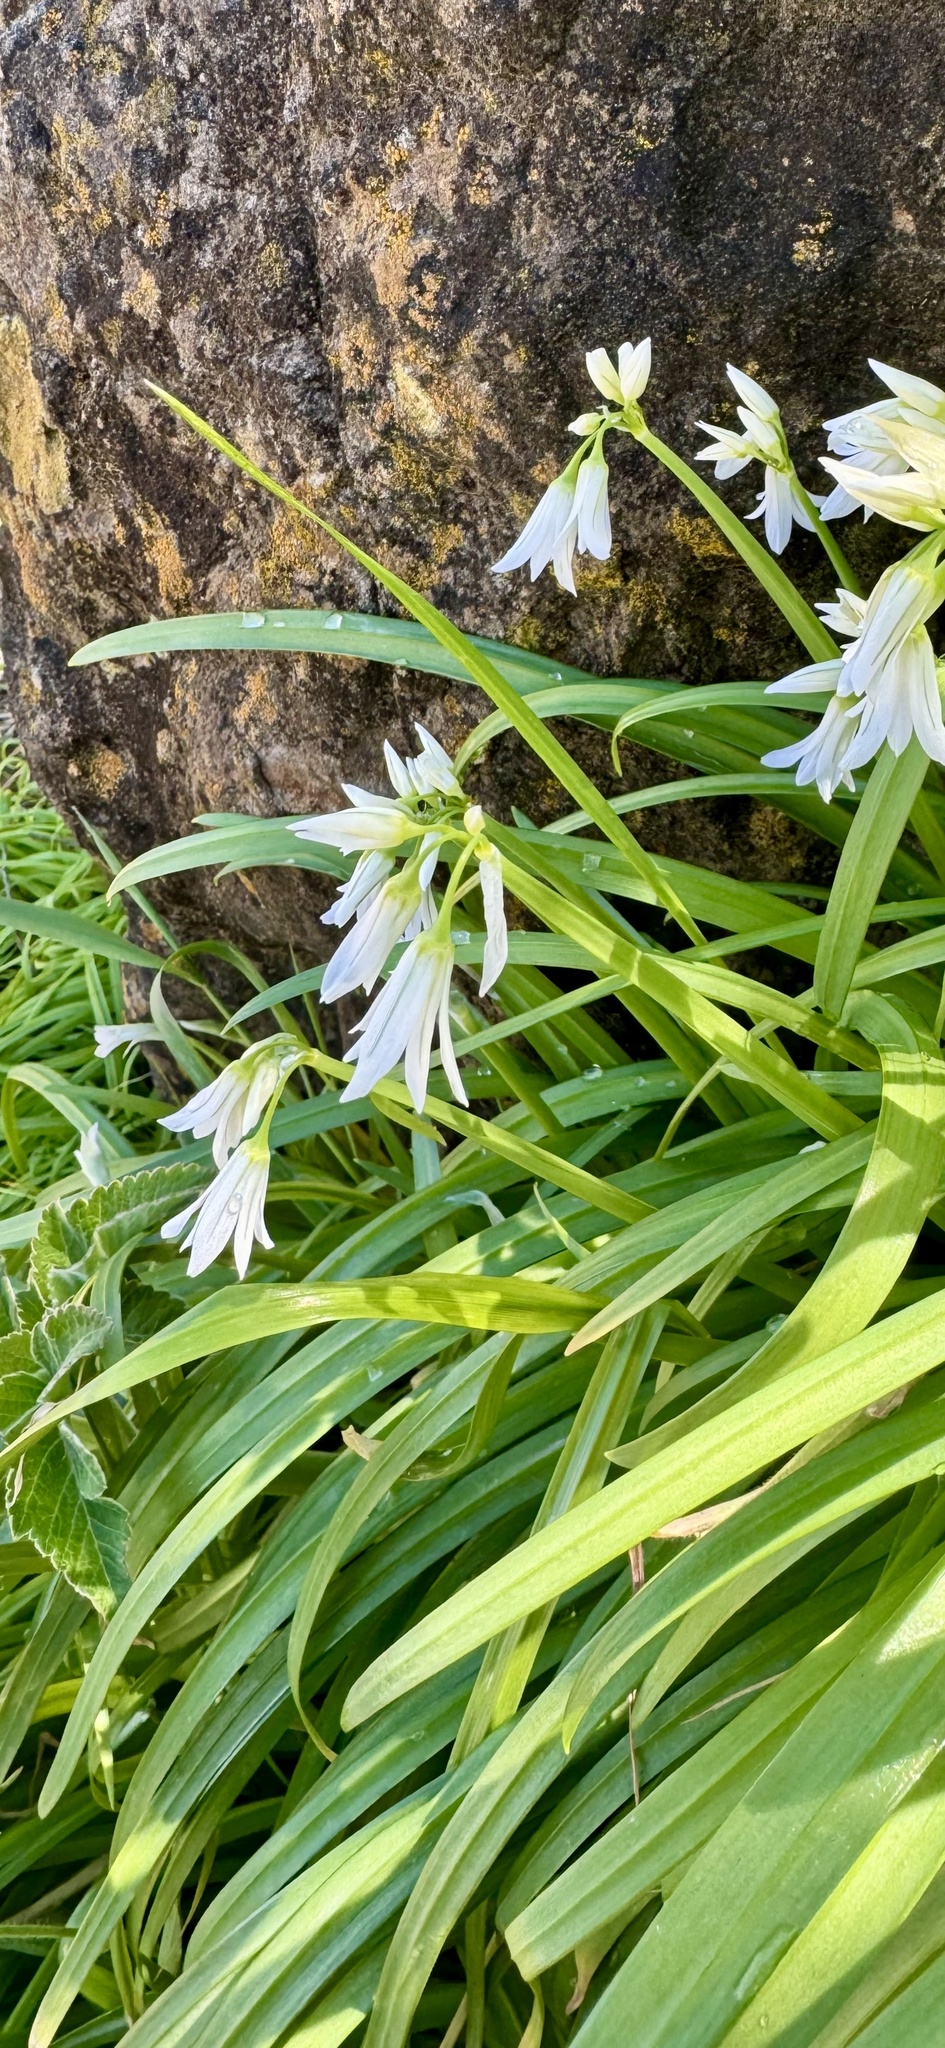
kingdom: Plantae
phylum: Tracheophyta
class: Liliopsida
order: Asparagales
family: Amaryllidaceae
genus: Allium
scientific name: Allium triquetrum
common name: Three-cornered garlic
